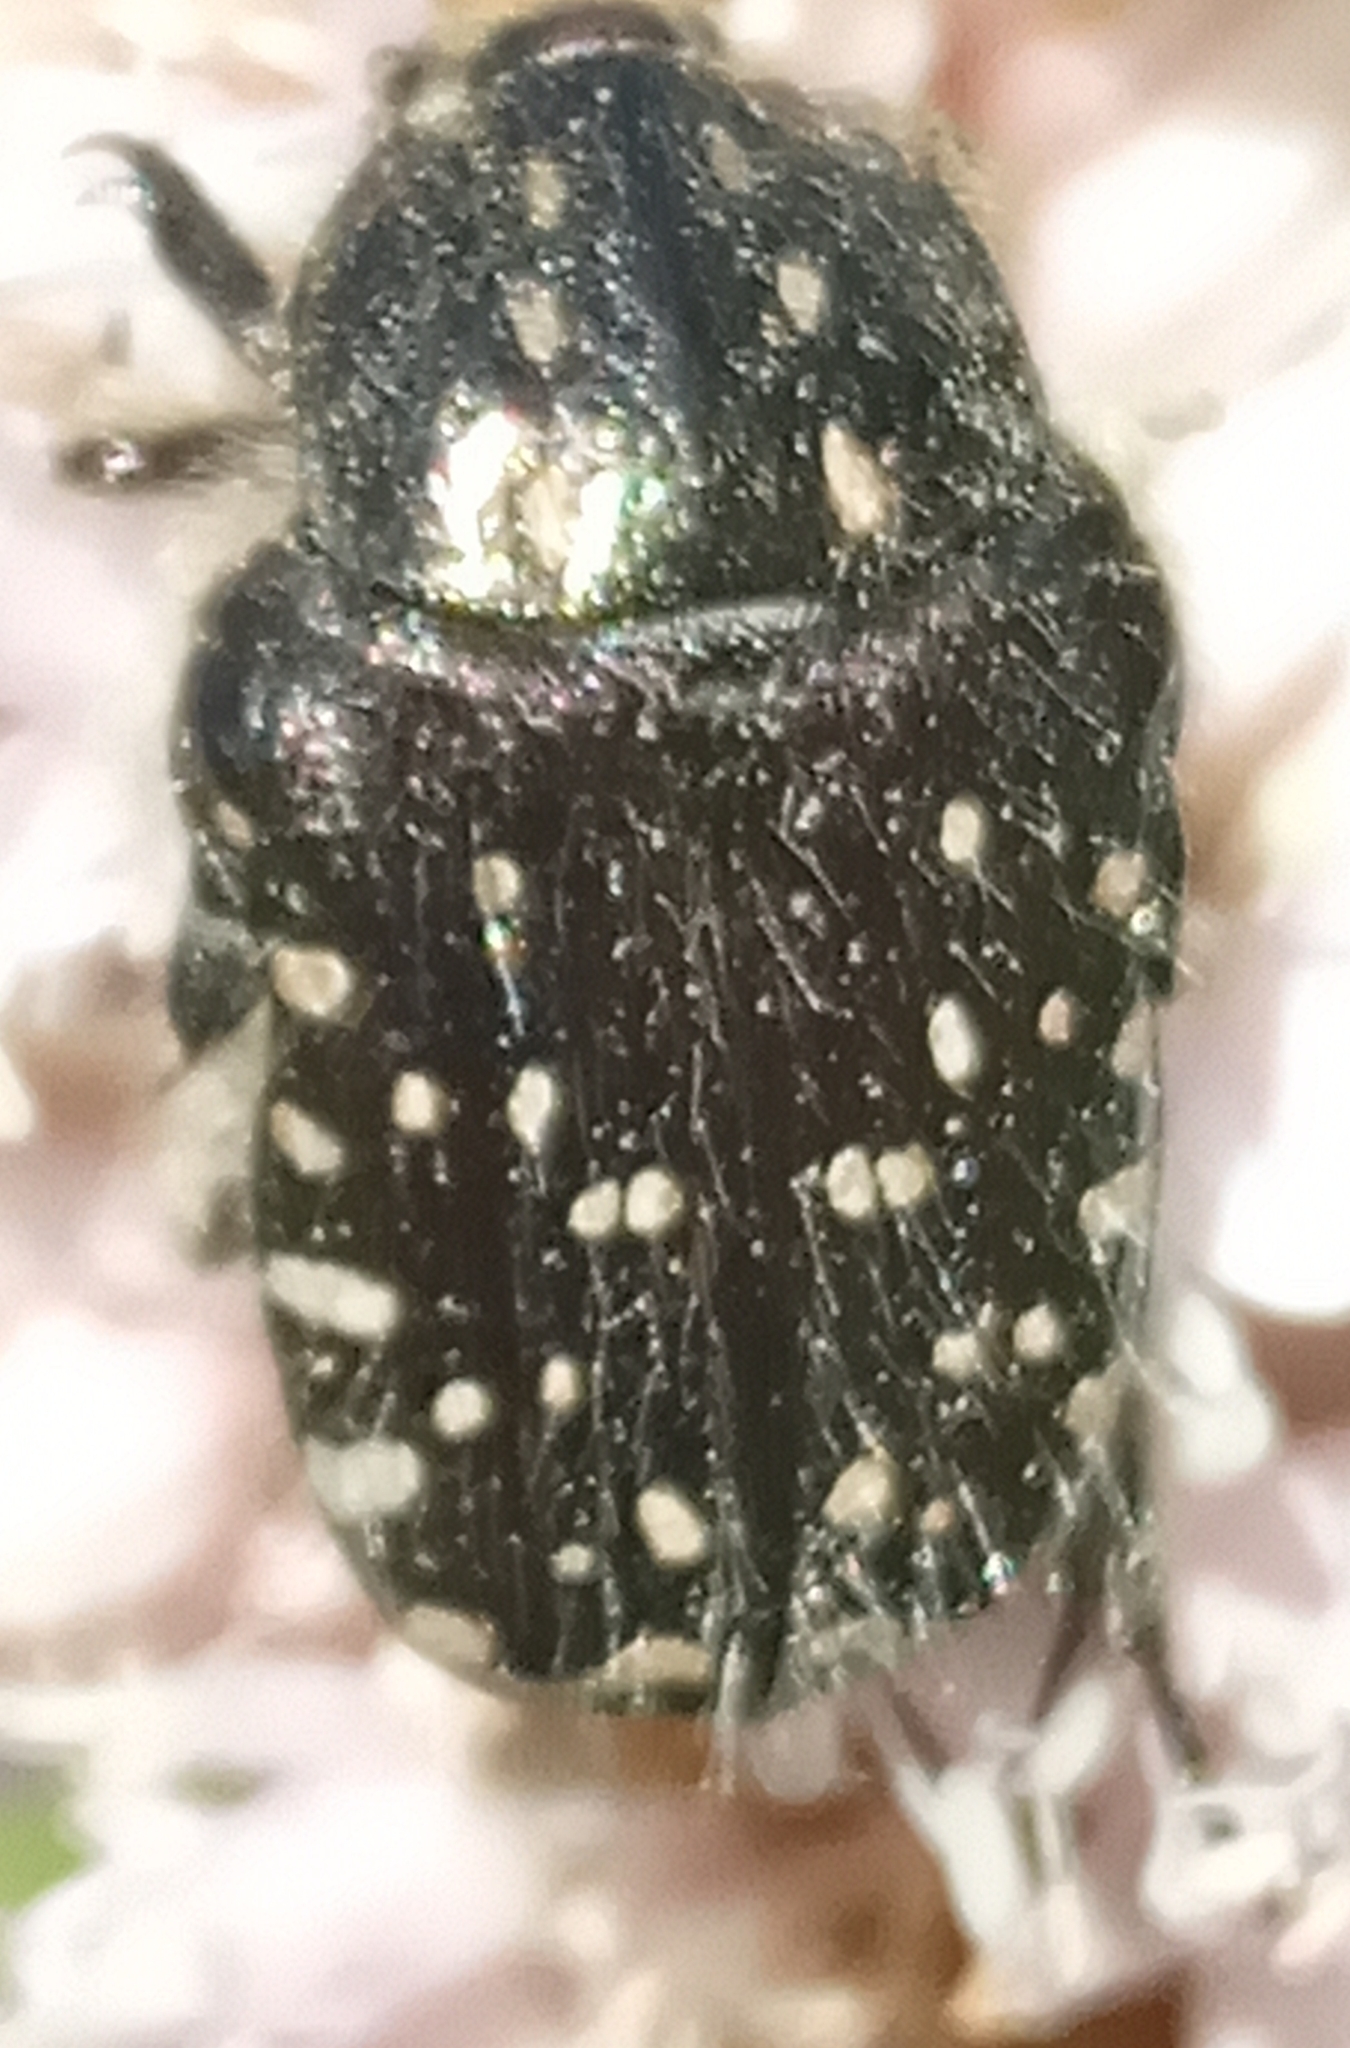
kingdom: Animalia
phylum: Arthropoda
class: Insecta
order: Coleoptera
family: Scarabaeidae
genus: Oxythyrea
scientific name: Oxythyrea funesta
